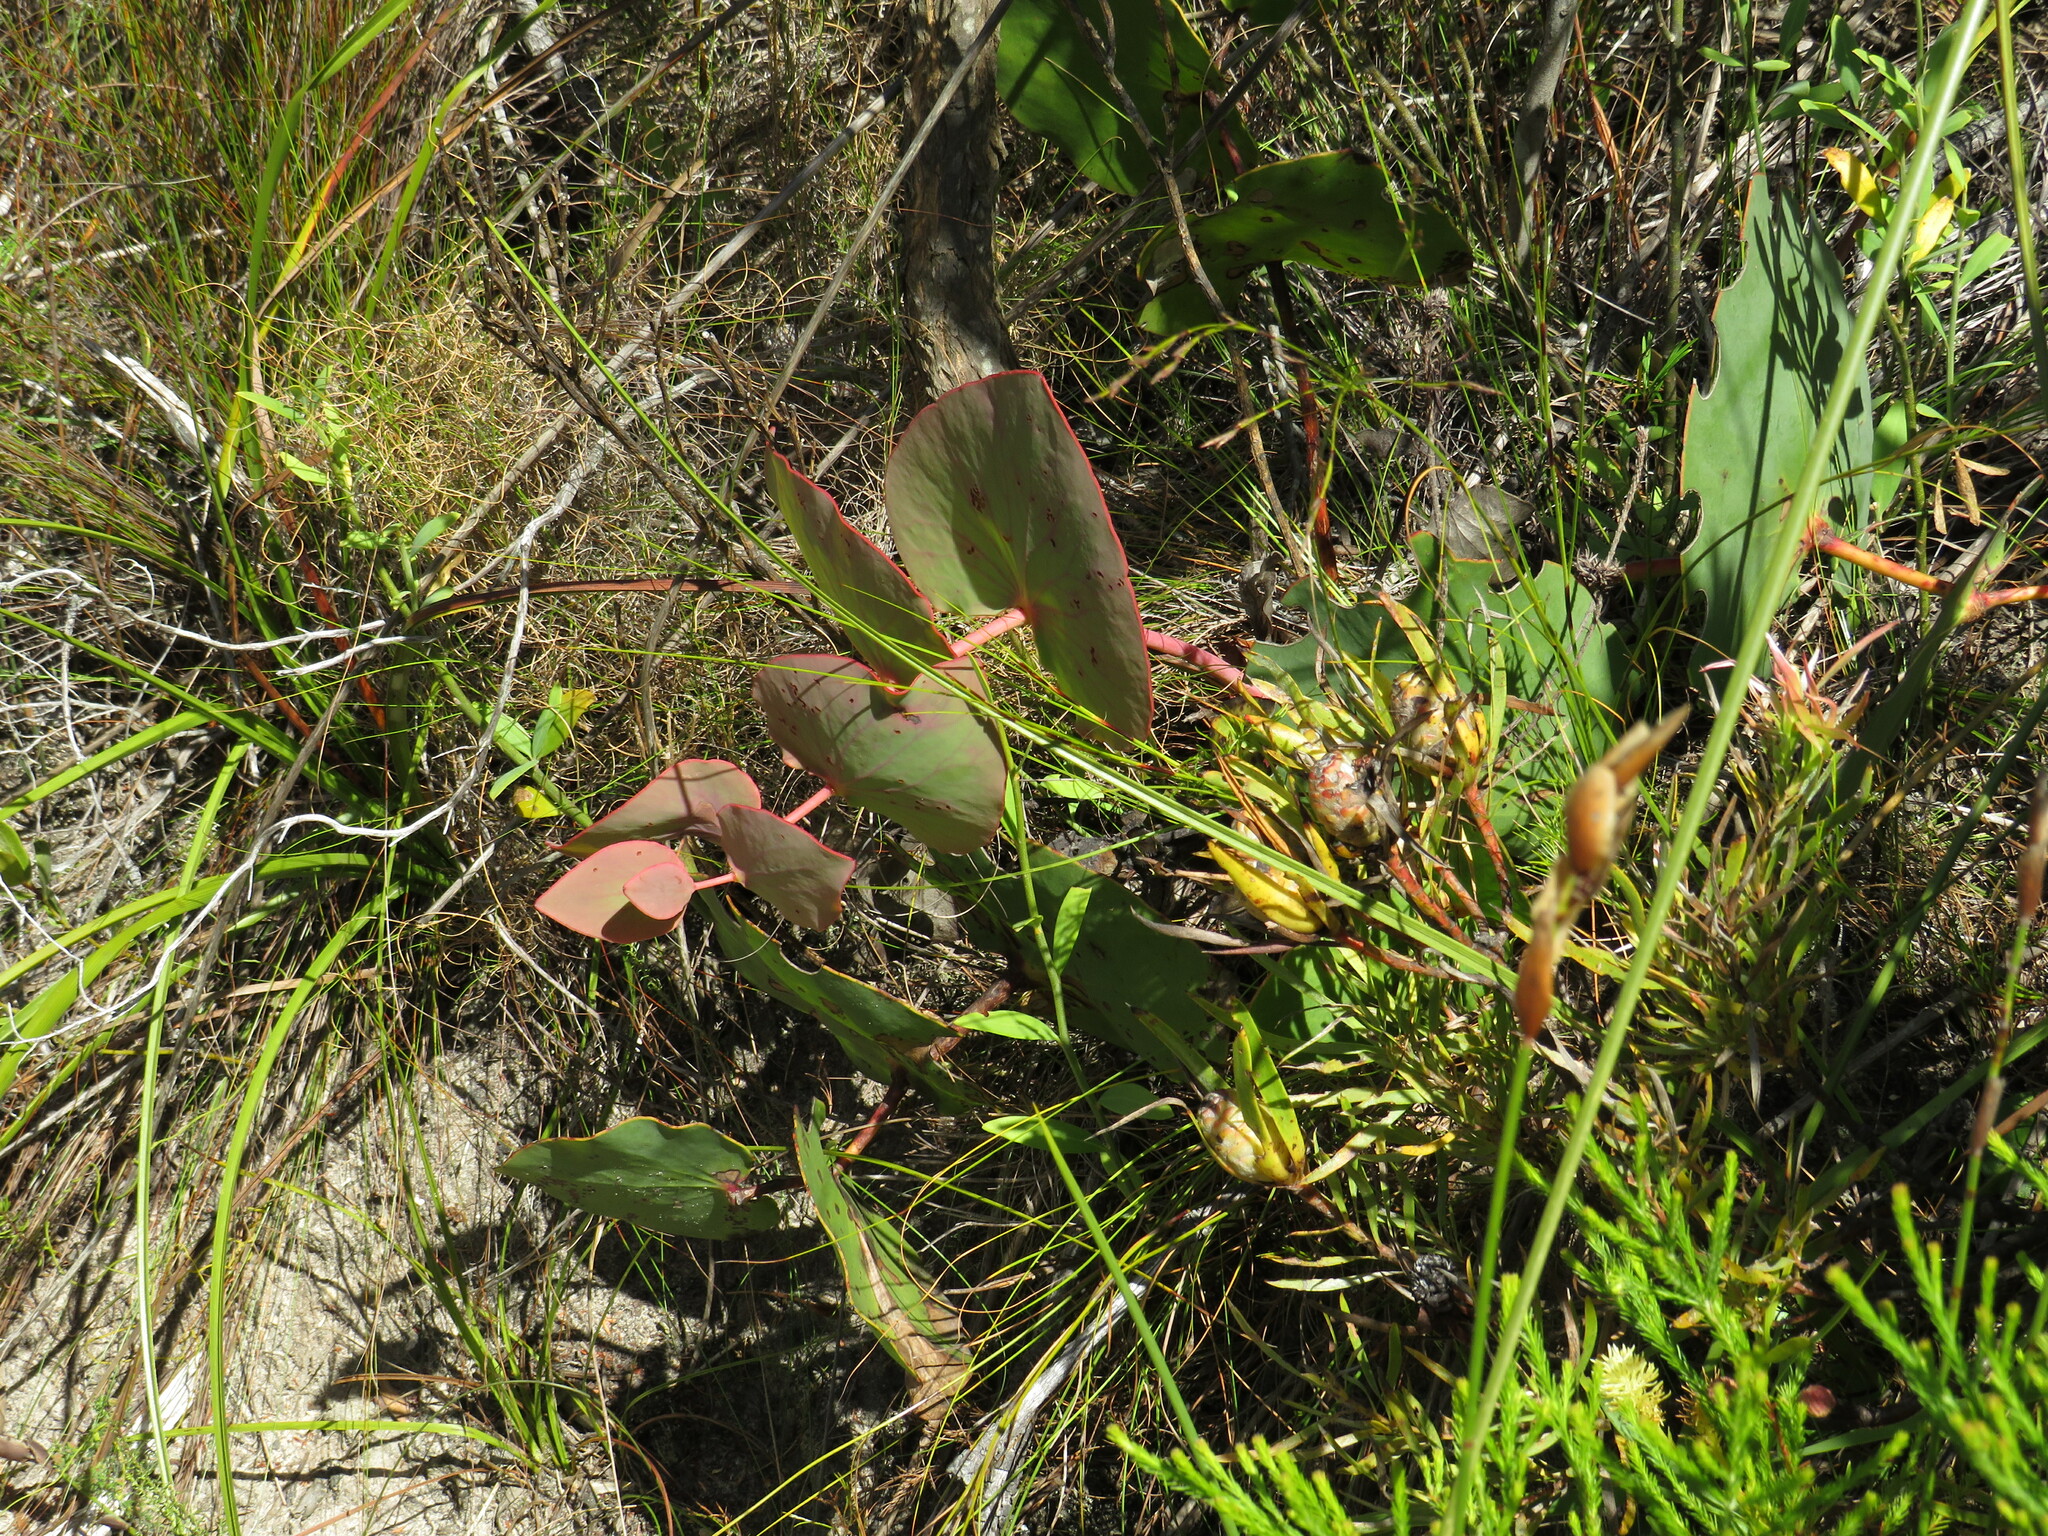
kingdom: Plantae
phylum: Tracheophyta
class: Magnoliopsida
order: Proteales
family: Proteaceae
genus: Protea
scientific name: Protea cordata
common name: Heart-leaf sugarbush
